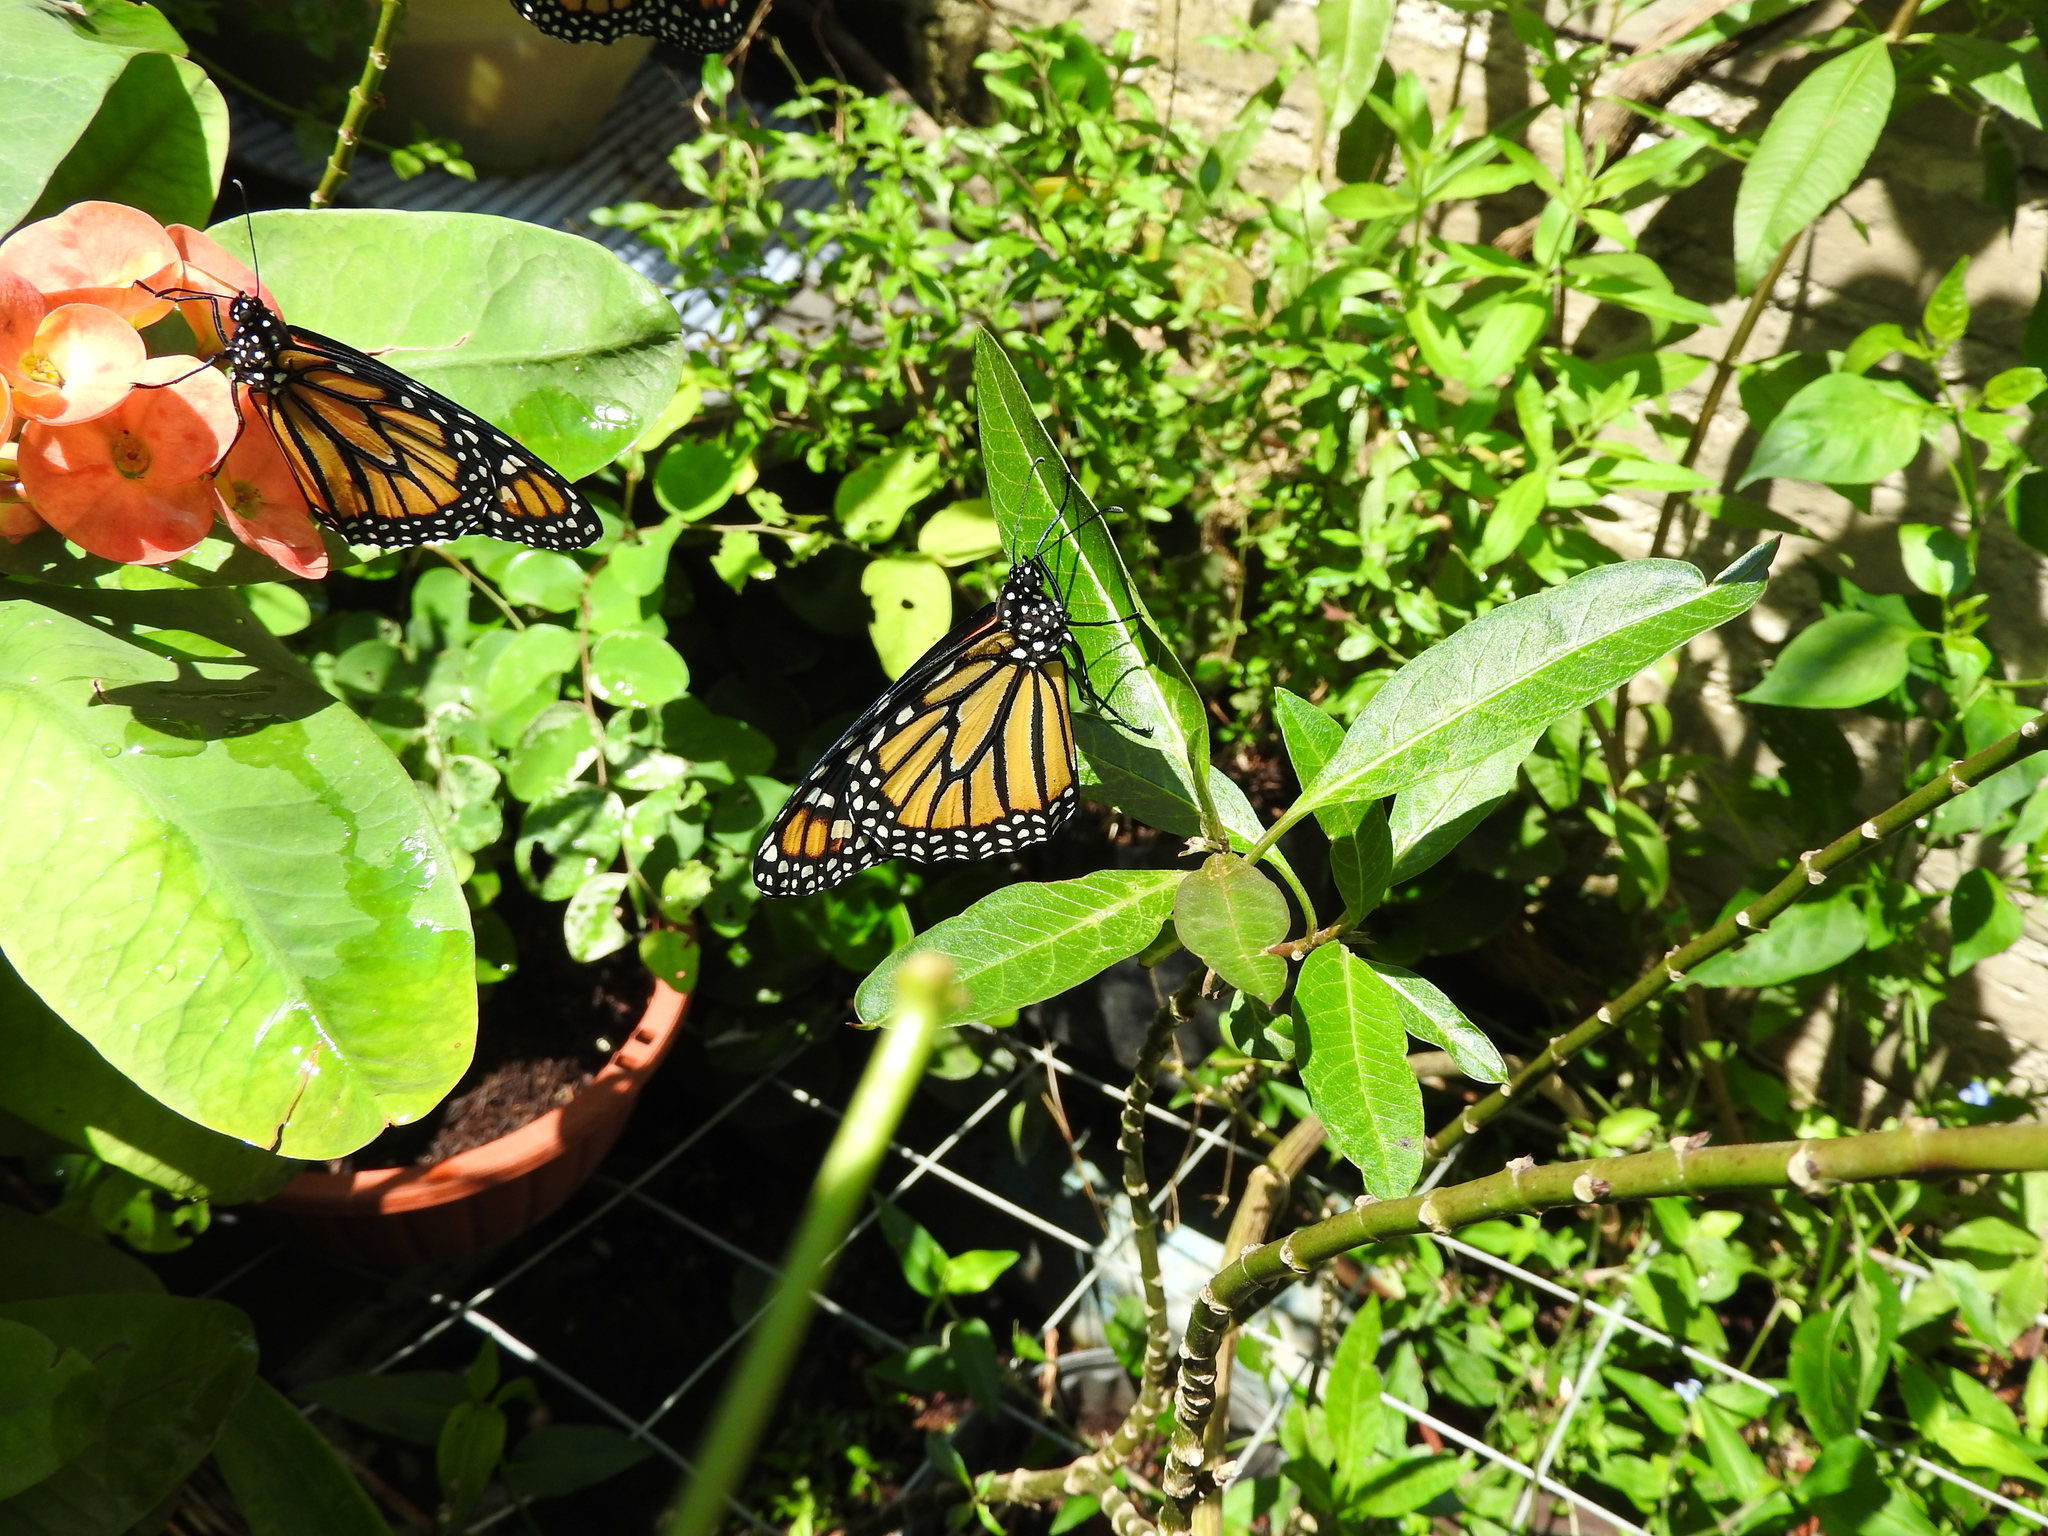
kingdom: Animalia
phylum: Arthropoda
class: Insecta
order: Lepidoptera
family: Nymphalidae
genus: Danaus
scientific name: Danaus plexippus
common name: Monarch
